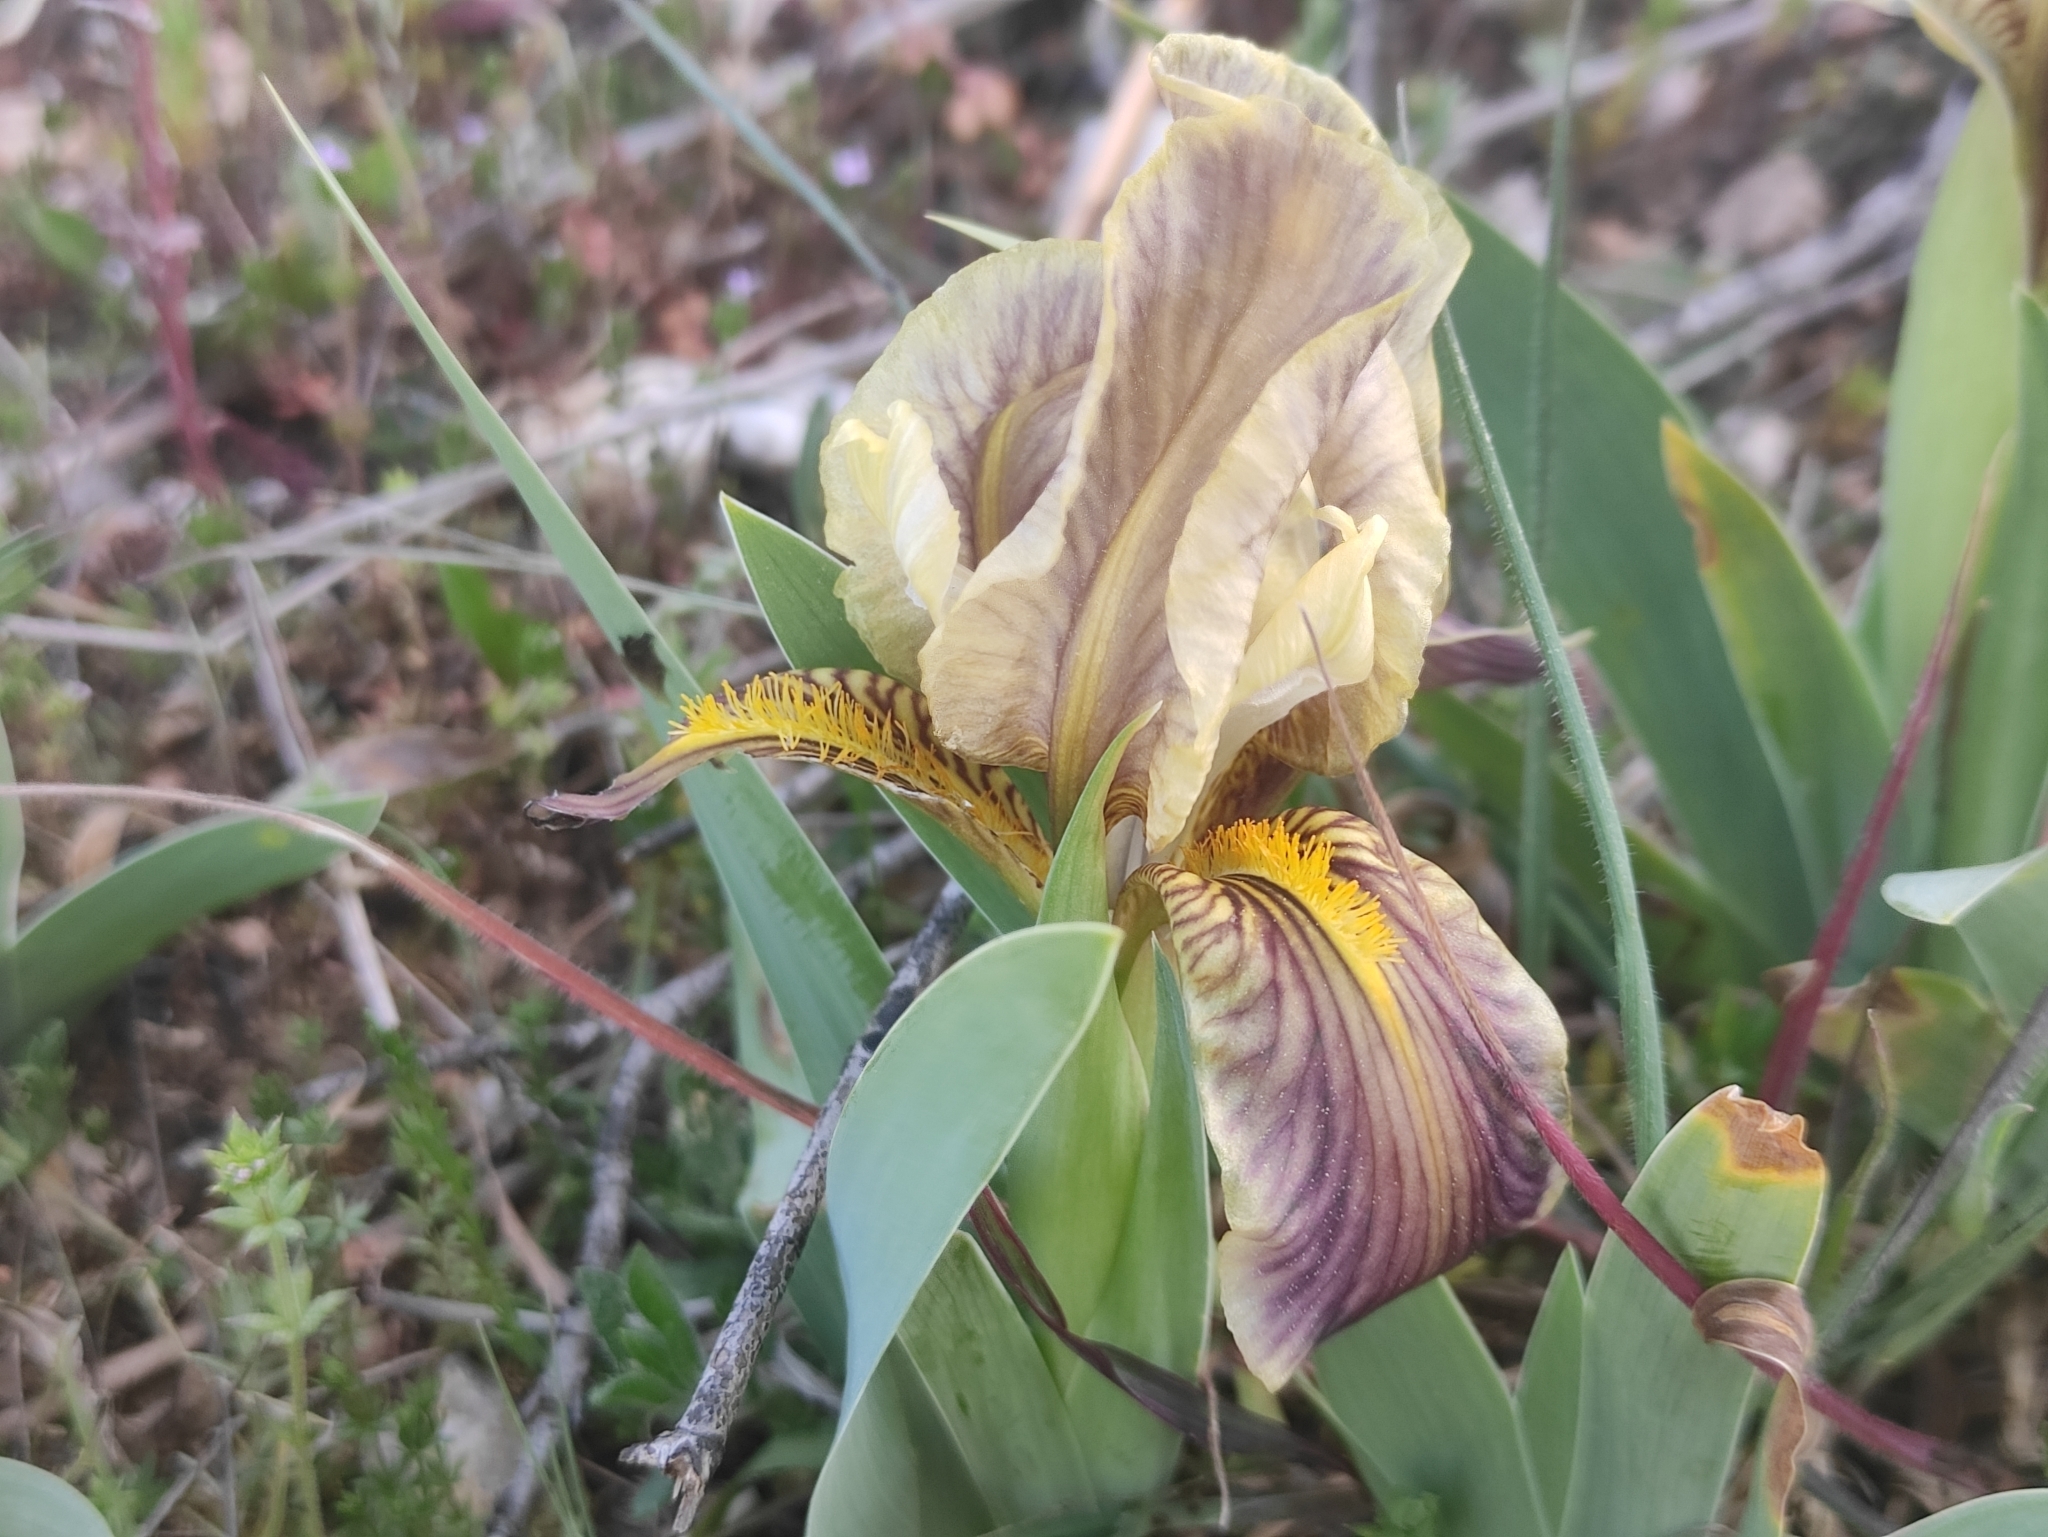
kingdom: Plantae
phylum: Tracheophyta
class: Liliopsida
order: Asparagales
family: Iridaceae
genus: Iris
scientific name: Iris lutescens
